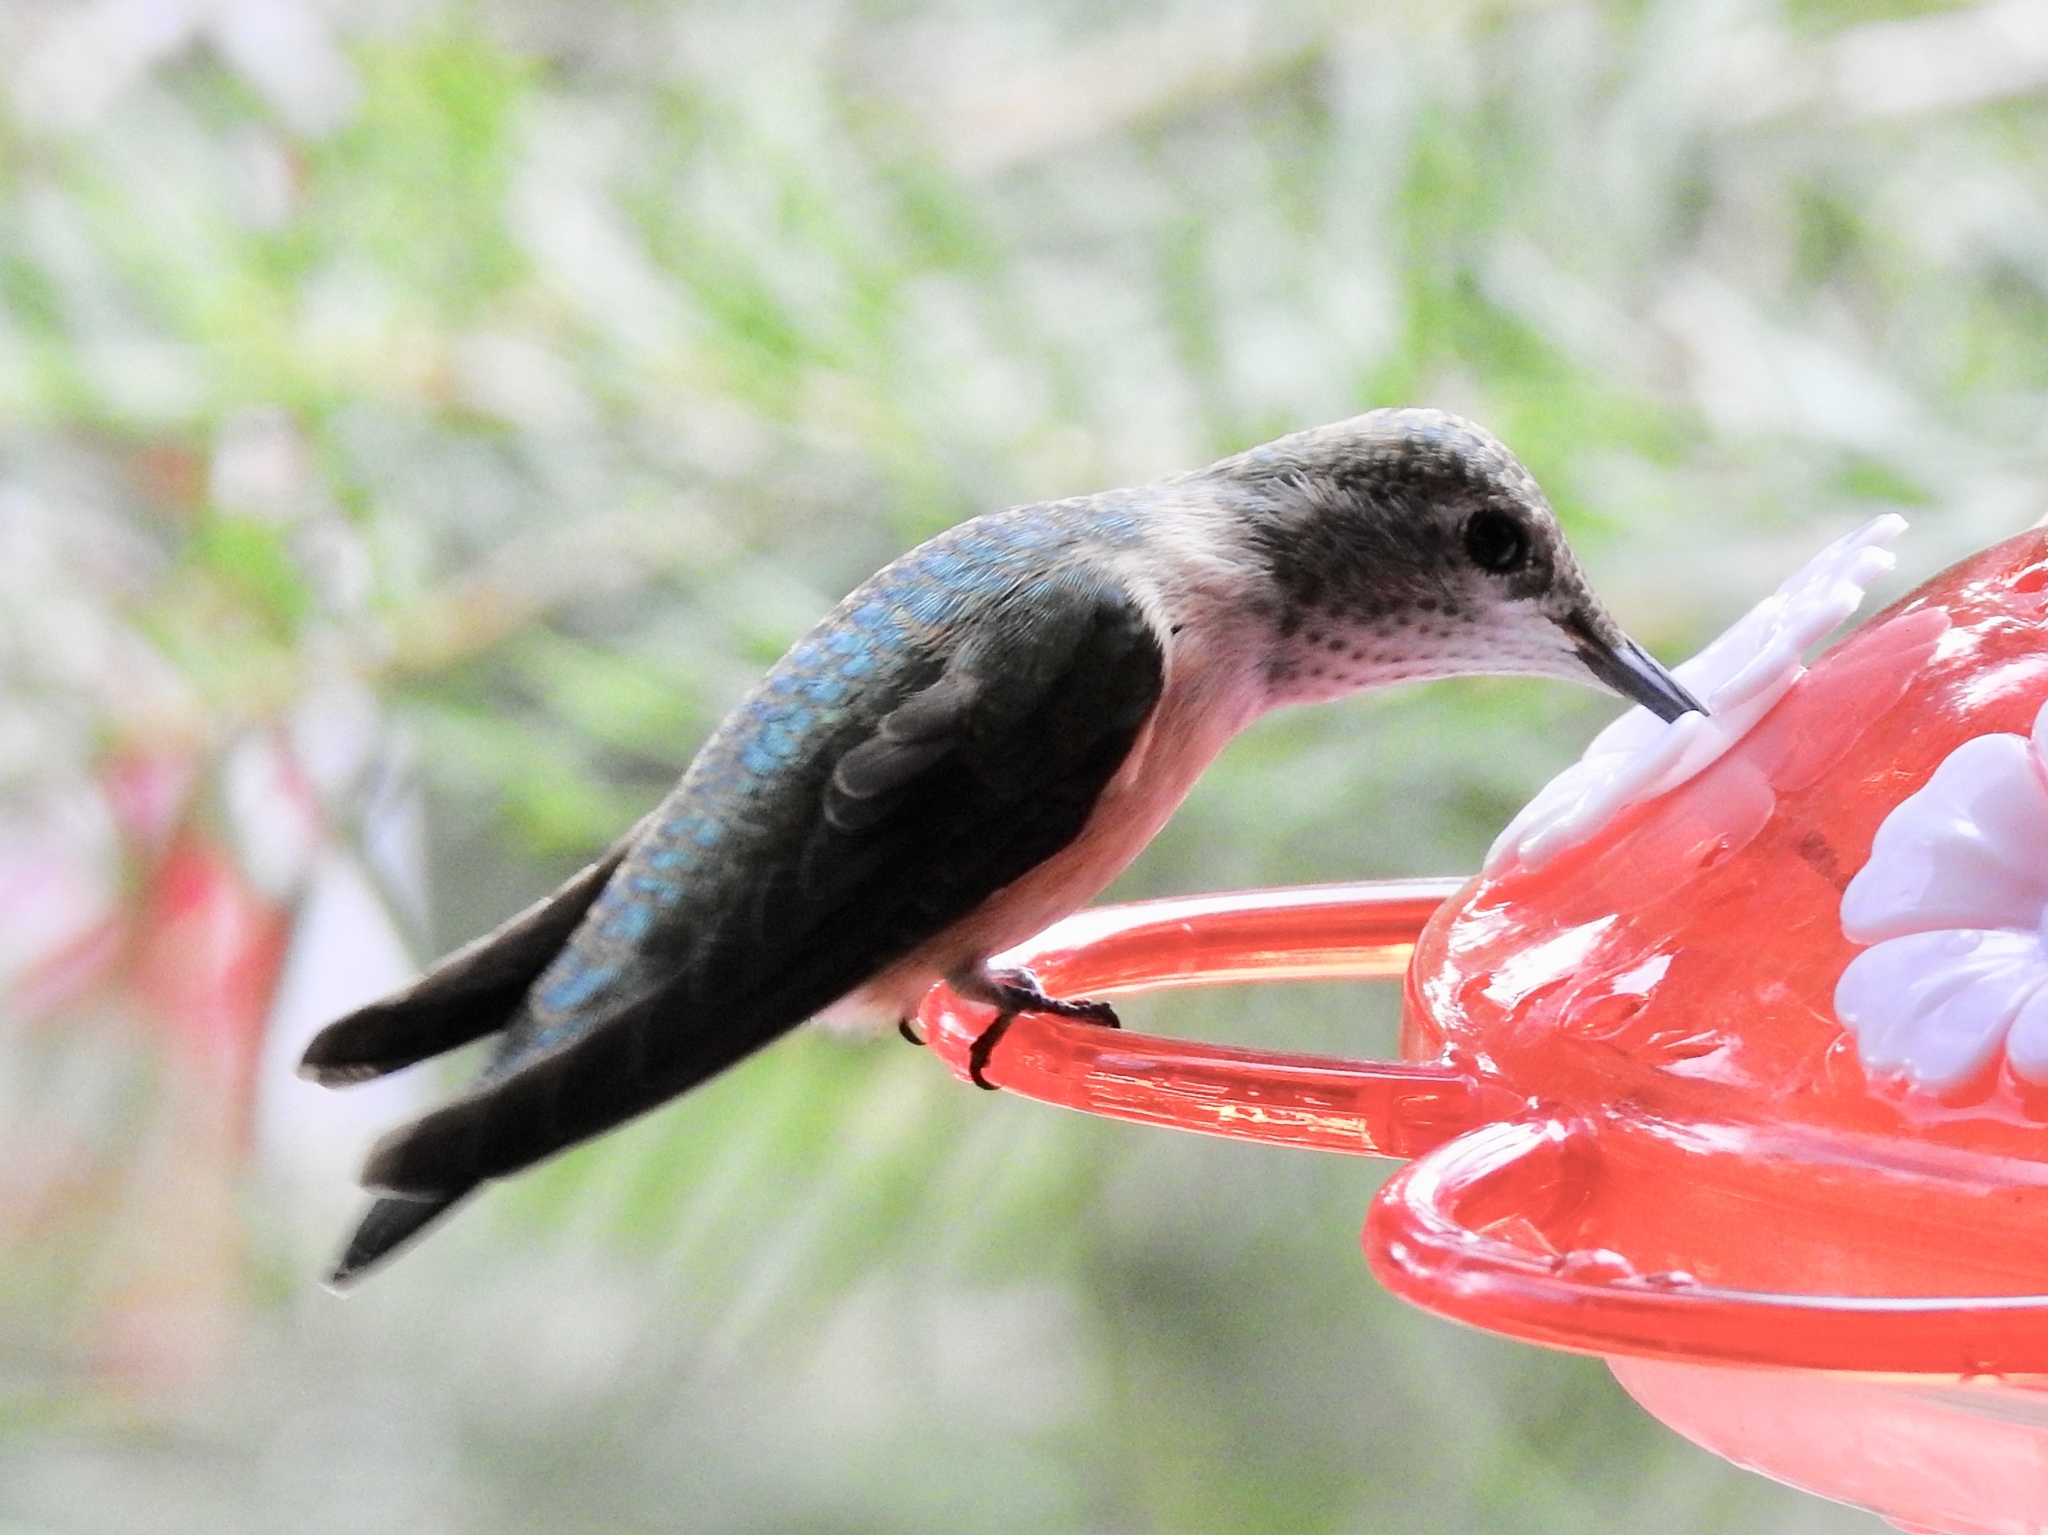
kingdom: Animalia
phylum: Chordata
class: Aves
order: Apodiformes
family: Trochilidae
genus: Selasphorus
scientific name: Selasphorus platycercus
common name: Broad-tailed hummingbird
